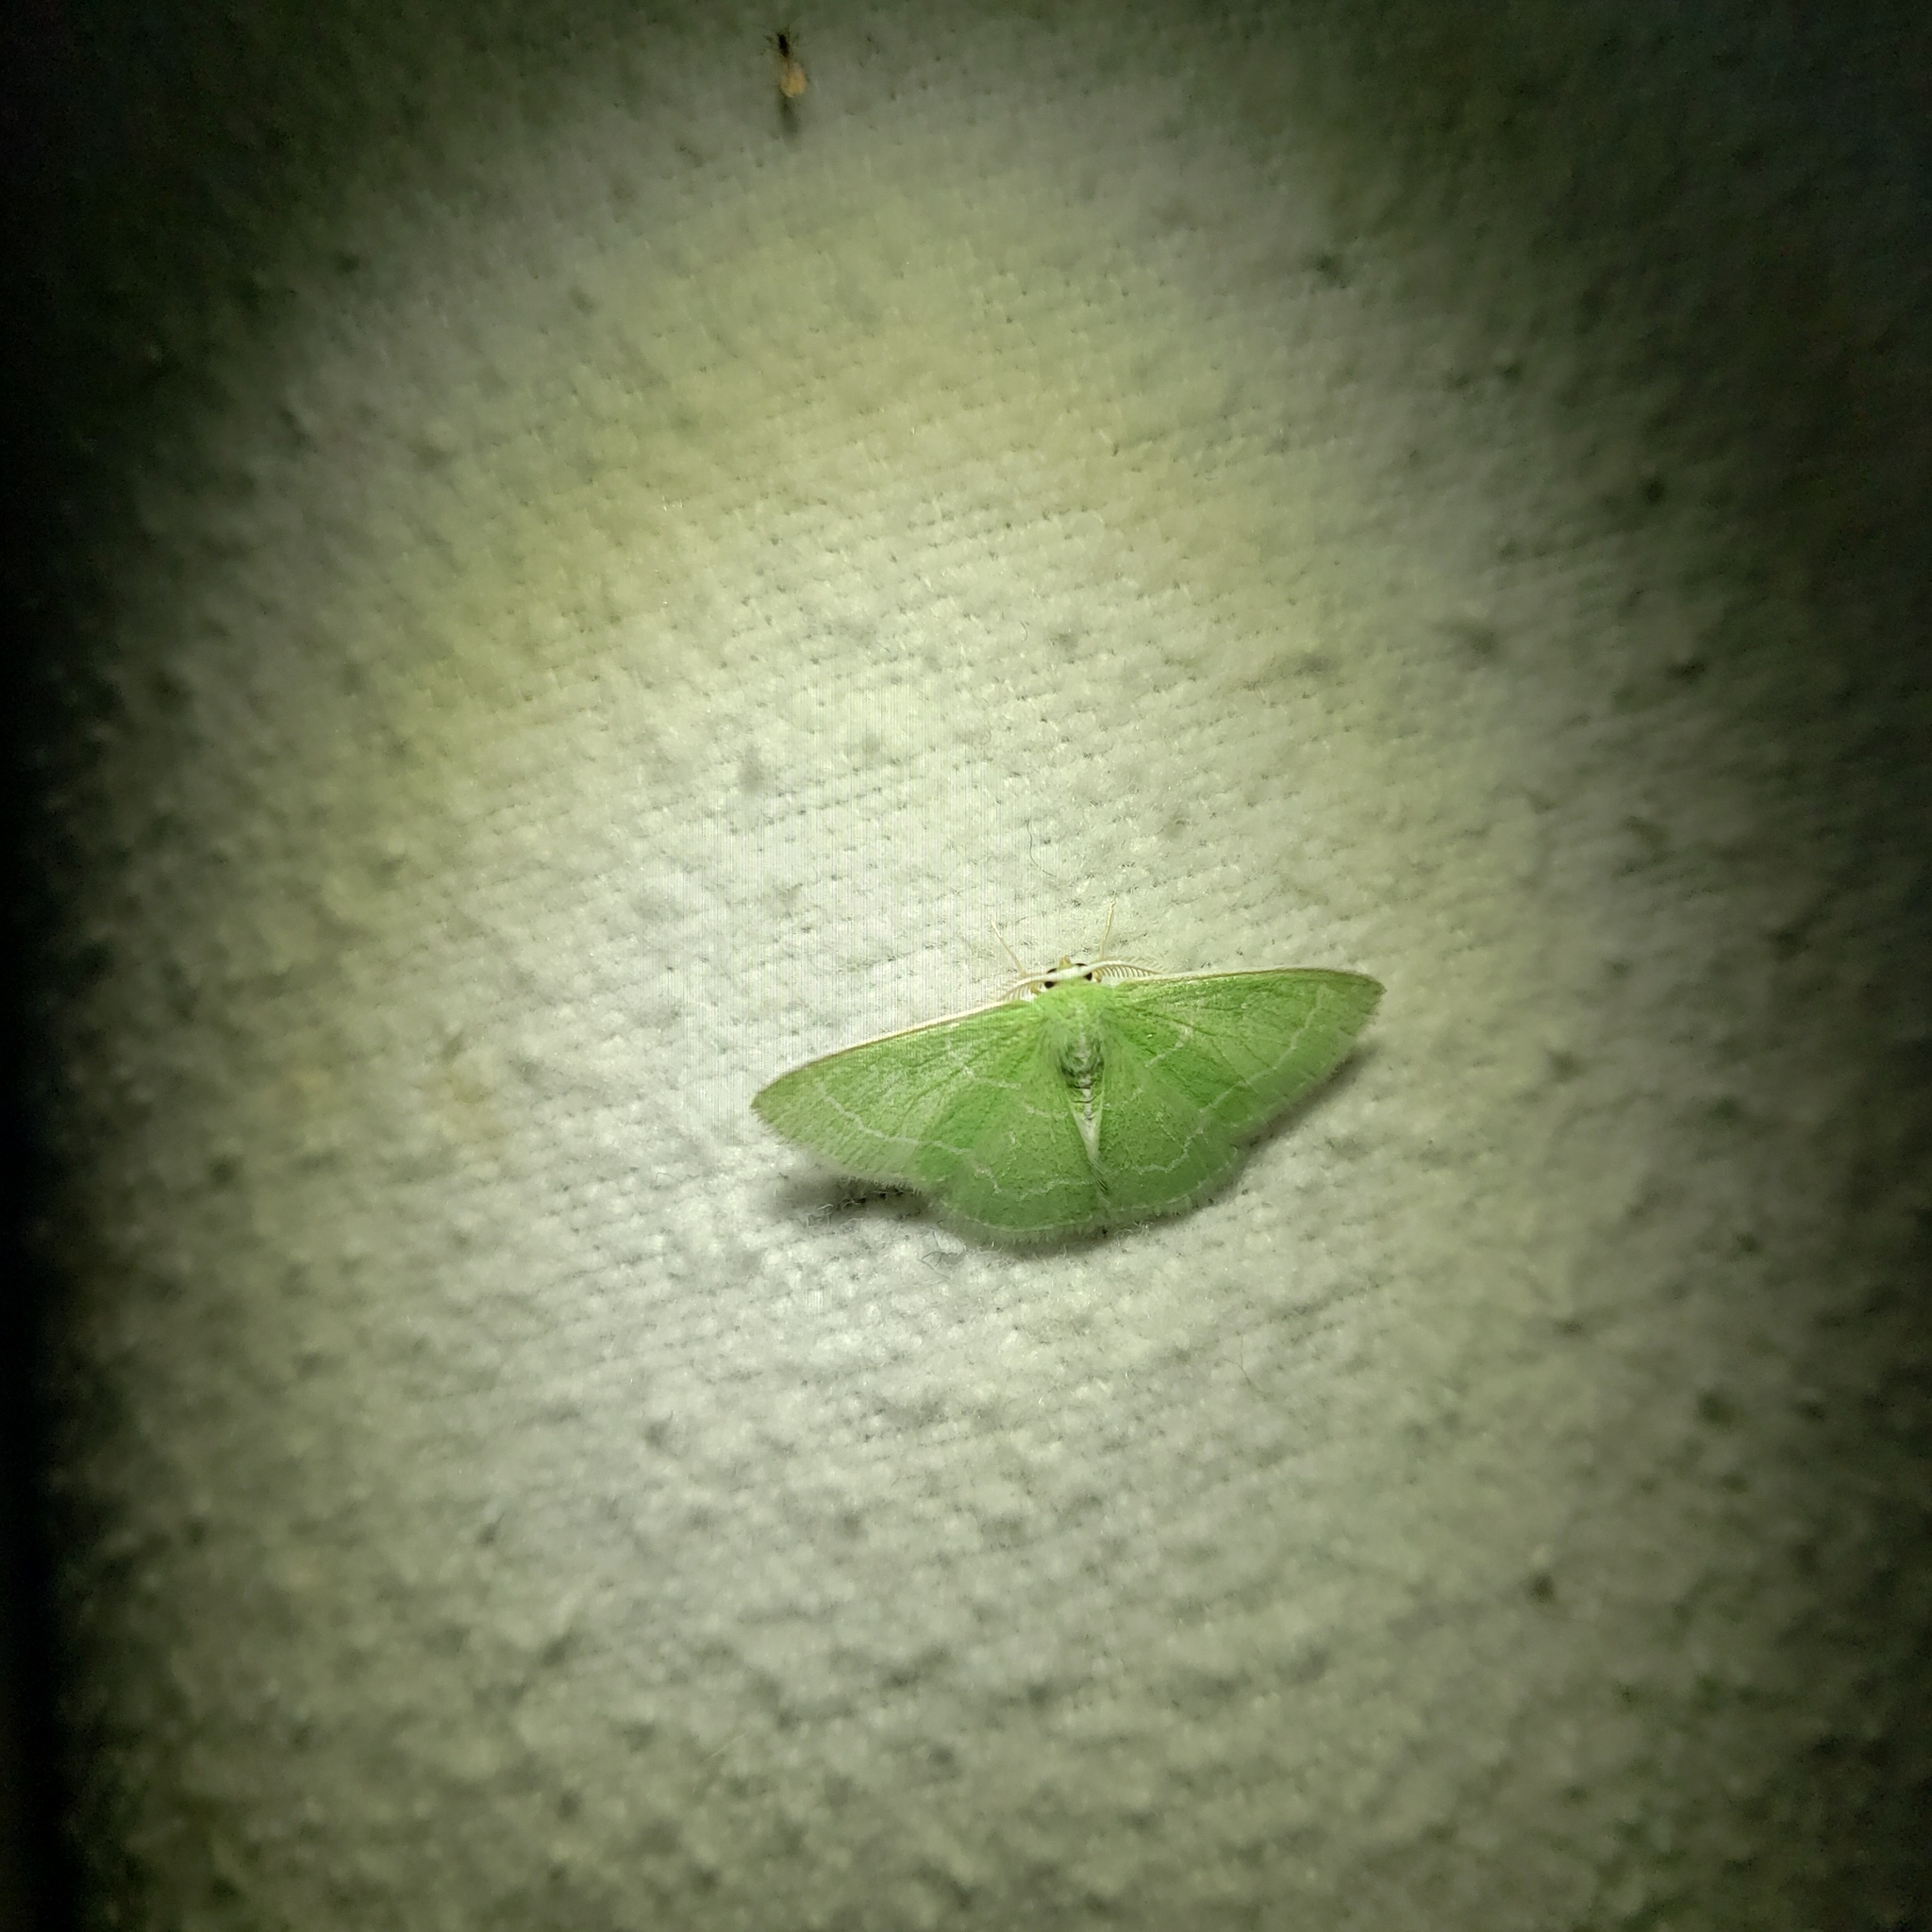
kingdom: Animalia
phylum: Arthropoda
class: Insecta
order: Lepidoptera
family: Geometridae
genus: Synchlora
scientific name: Synchlora aerata
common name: Wavy-lined emerald
